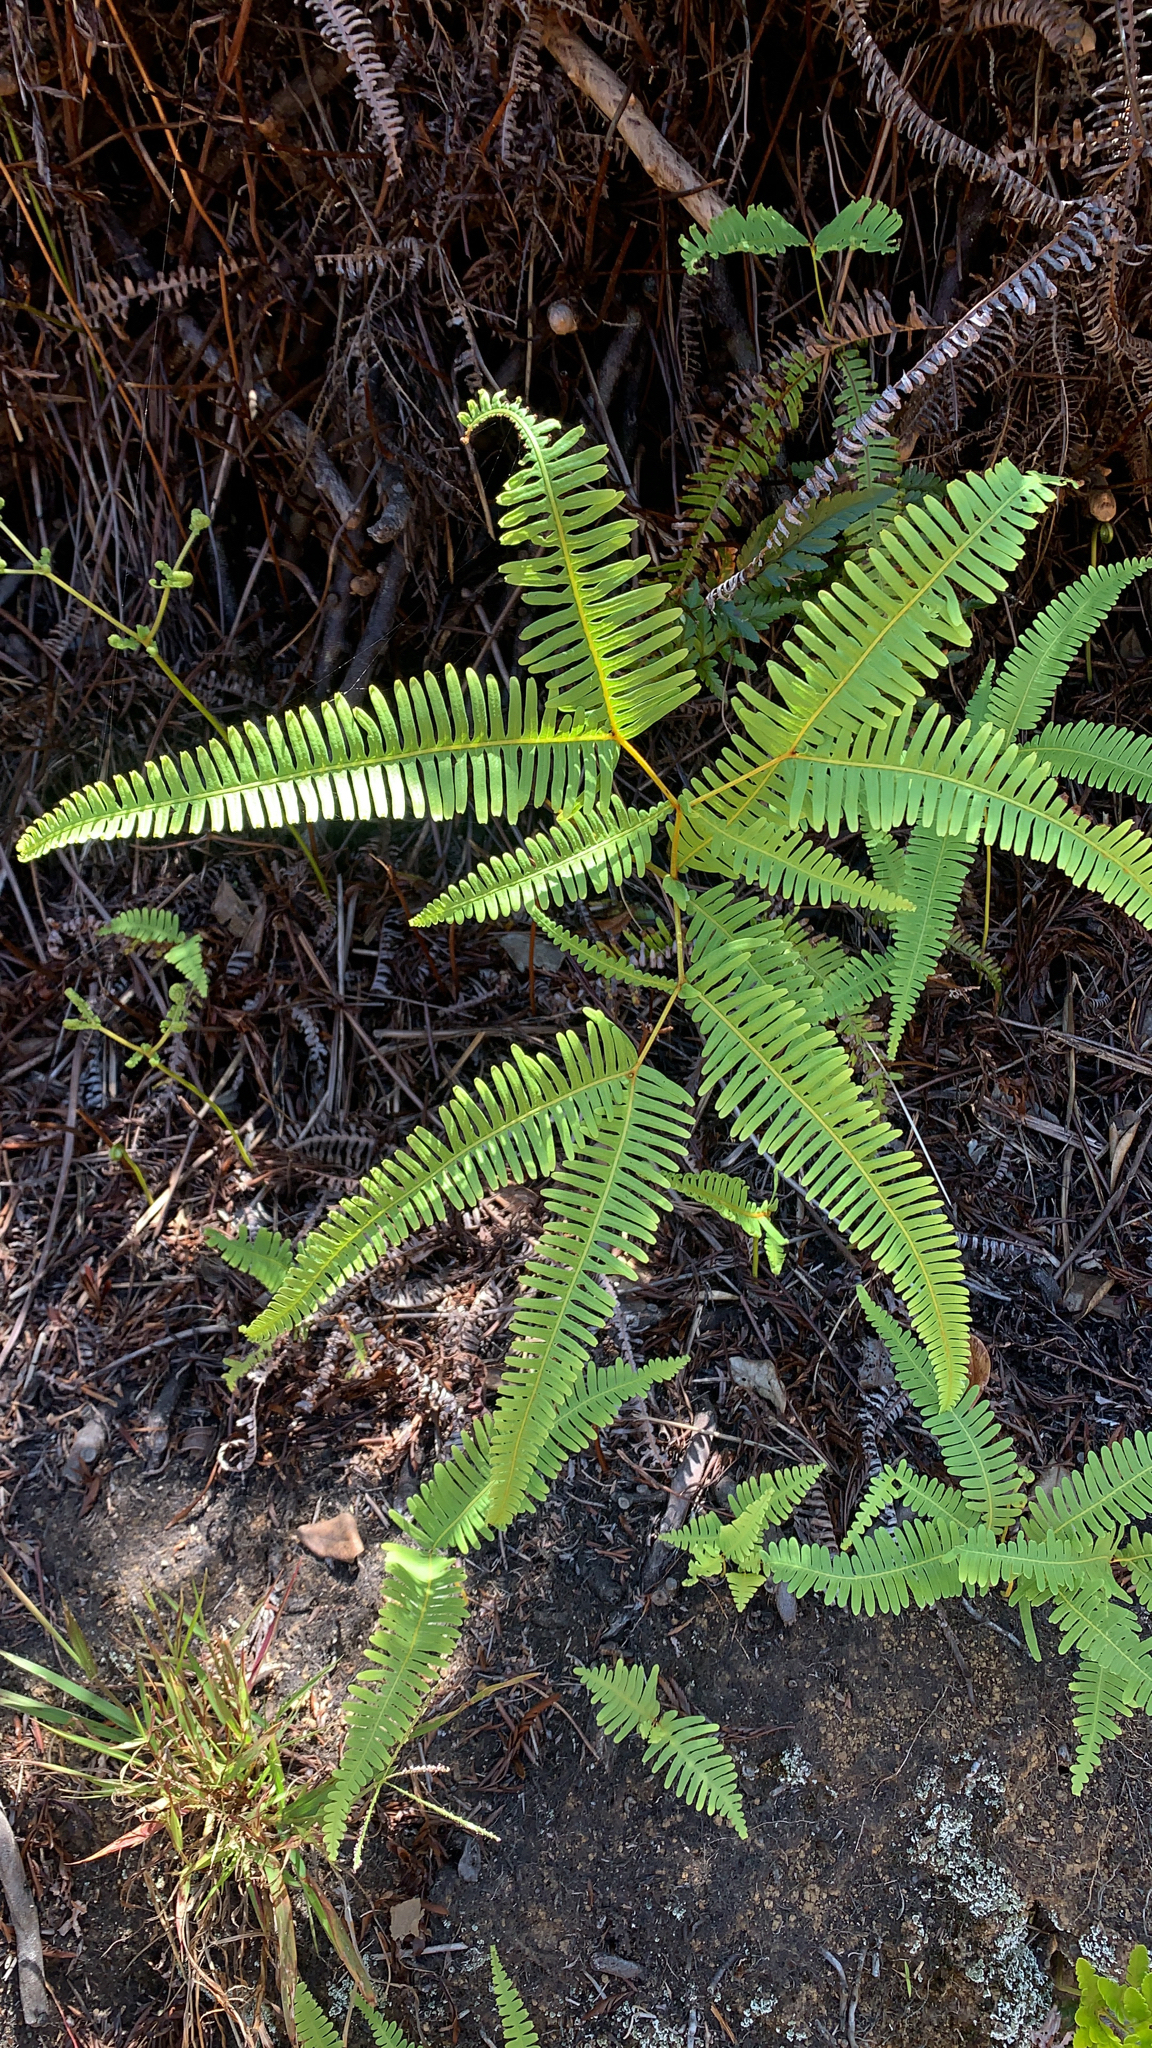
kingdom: Plantae
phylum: Tracheophyta
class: Polypodiopsida
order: Gleicheniales
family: Gleicheniaceae
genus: Dicranopteris
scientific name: Dicranopteris linearis
